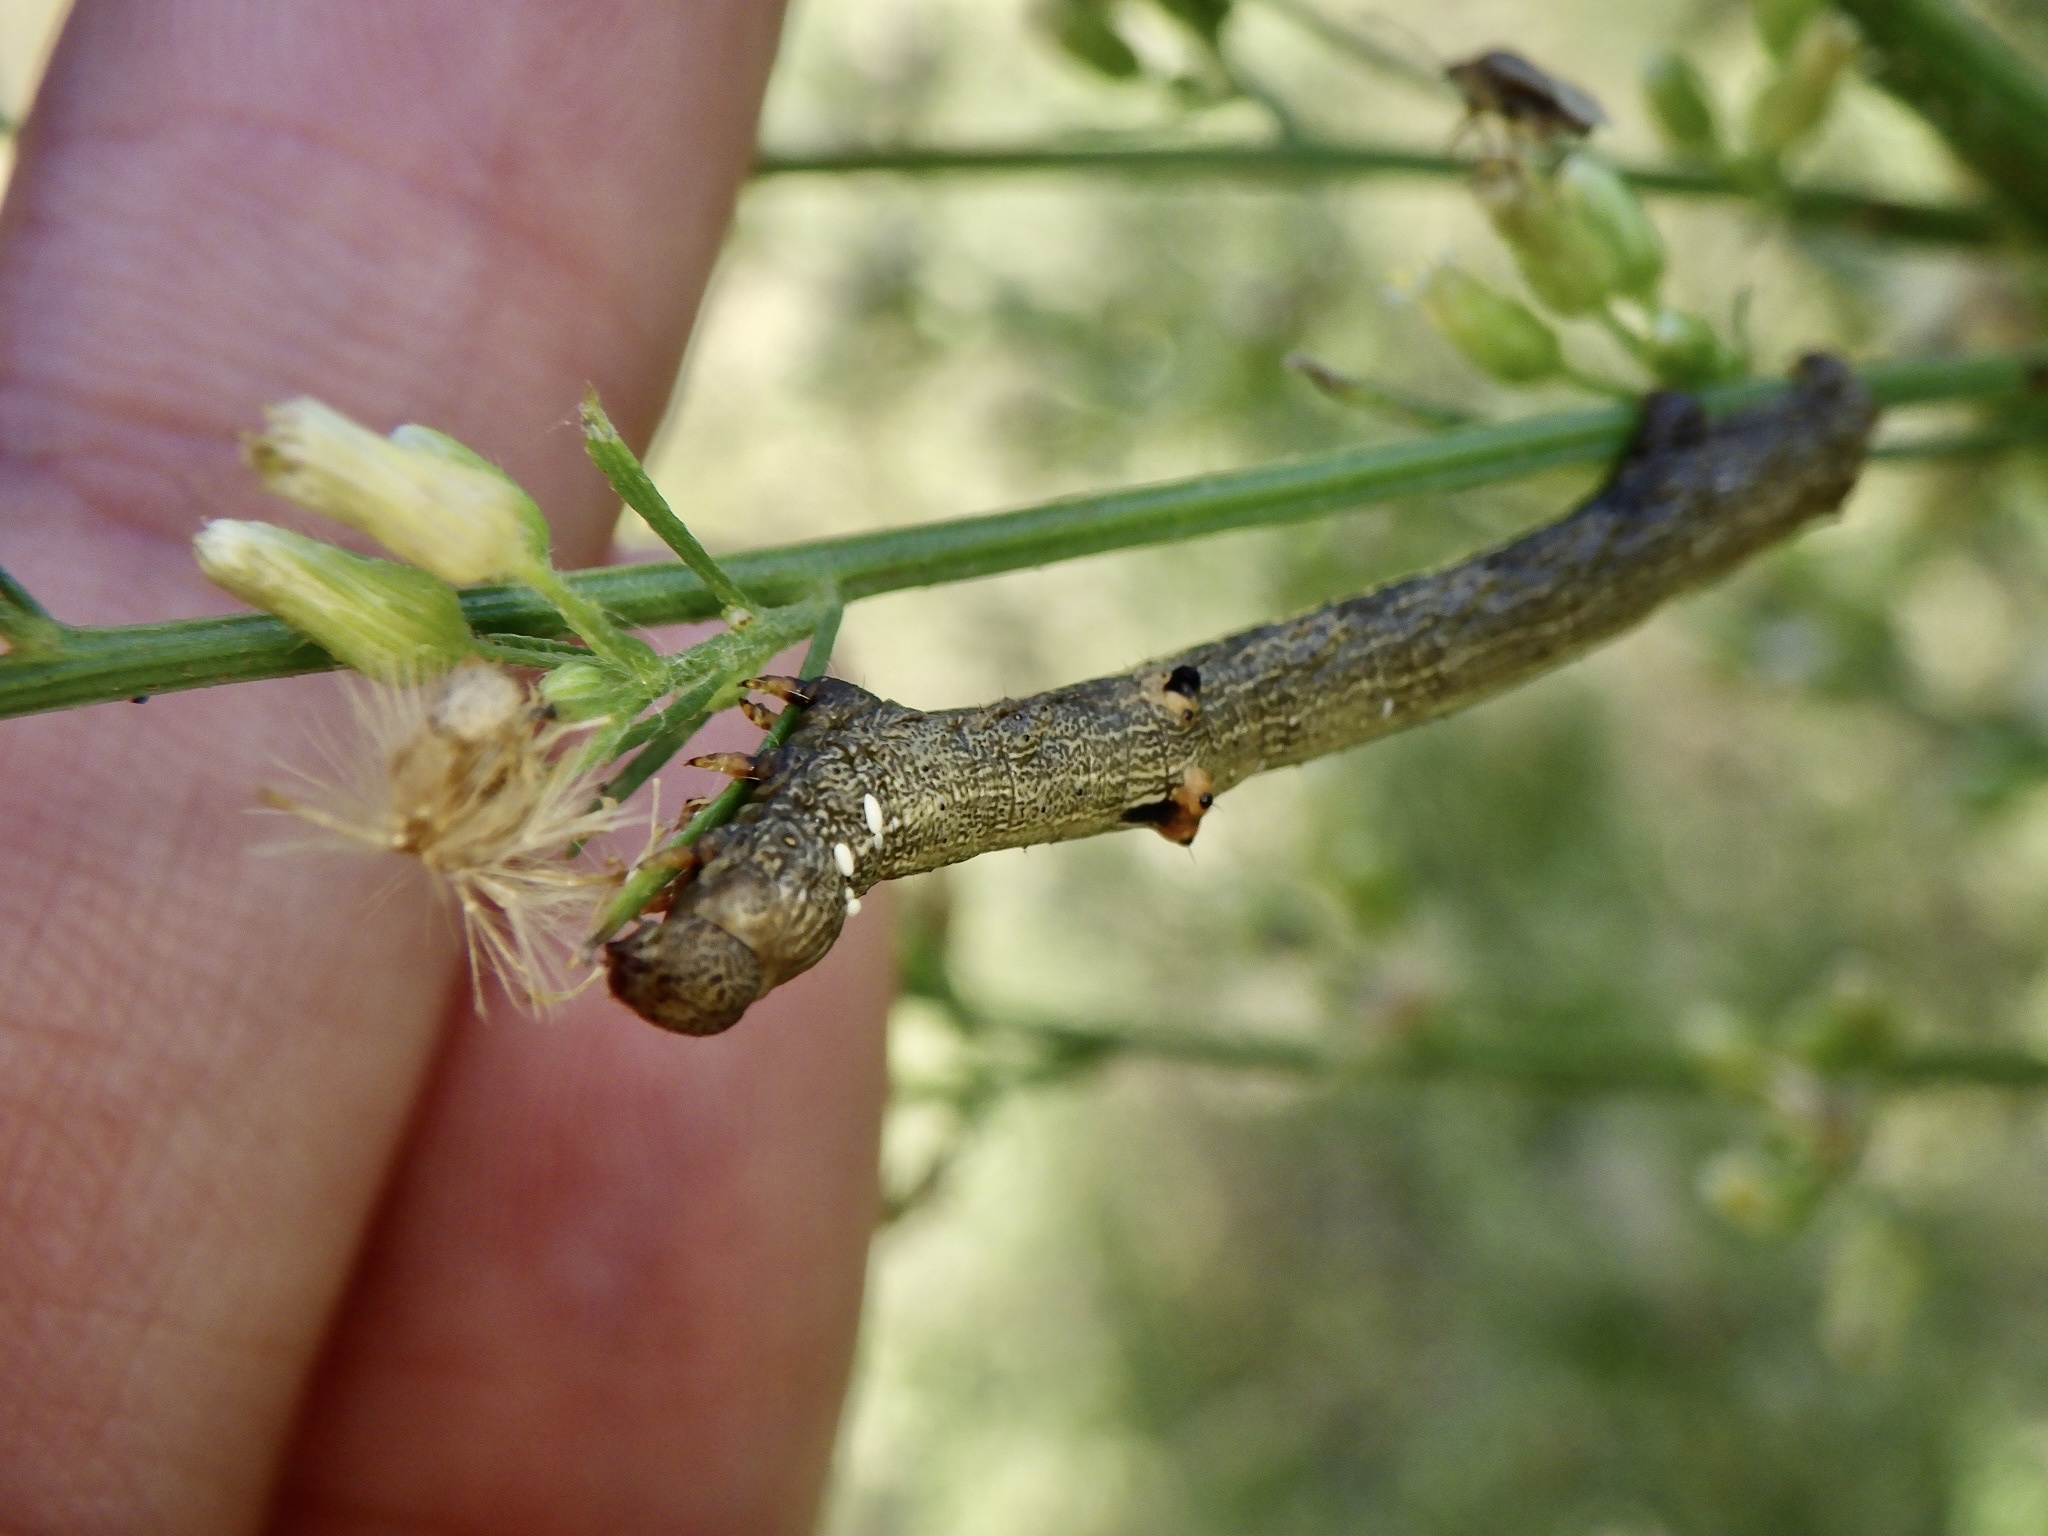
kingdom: Animalia
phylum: Arthropoda
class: Insecta
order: Lepidoptera
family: Geometridae
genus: Ascotis
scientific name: Ascotis selenaria
